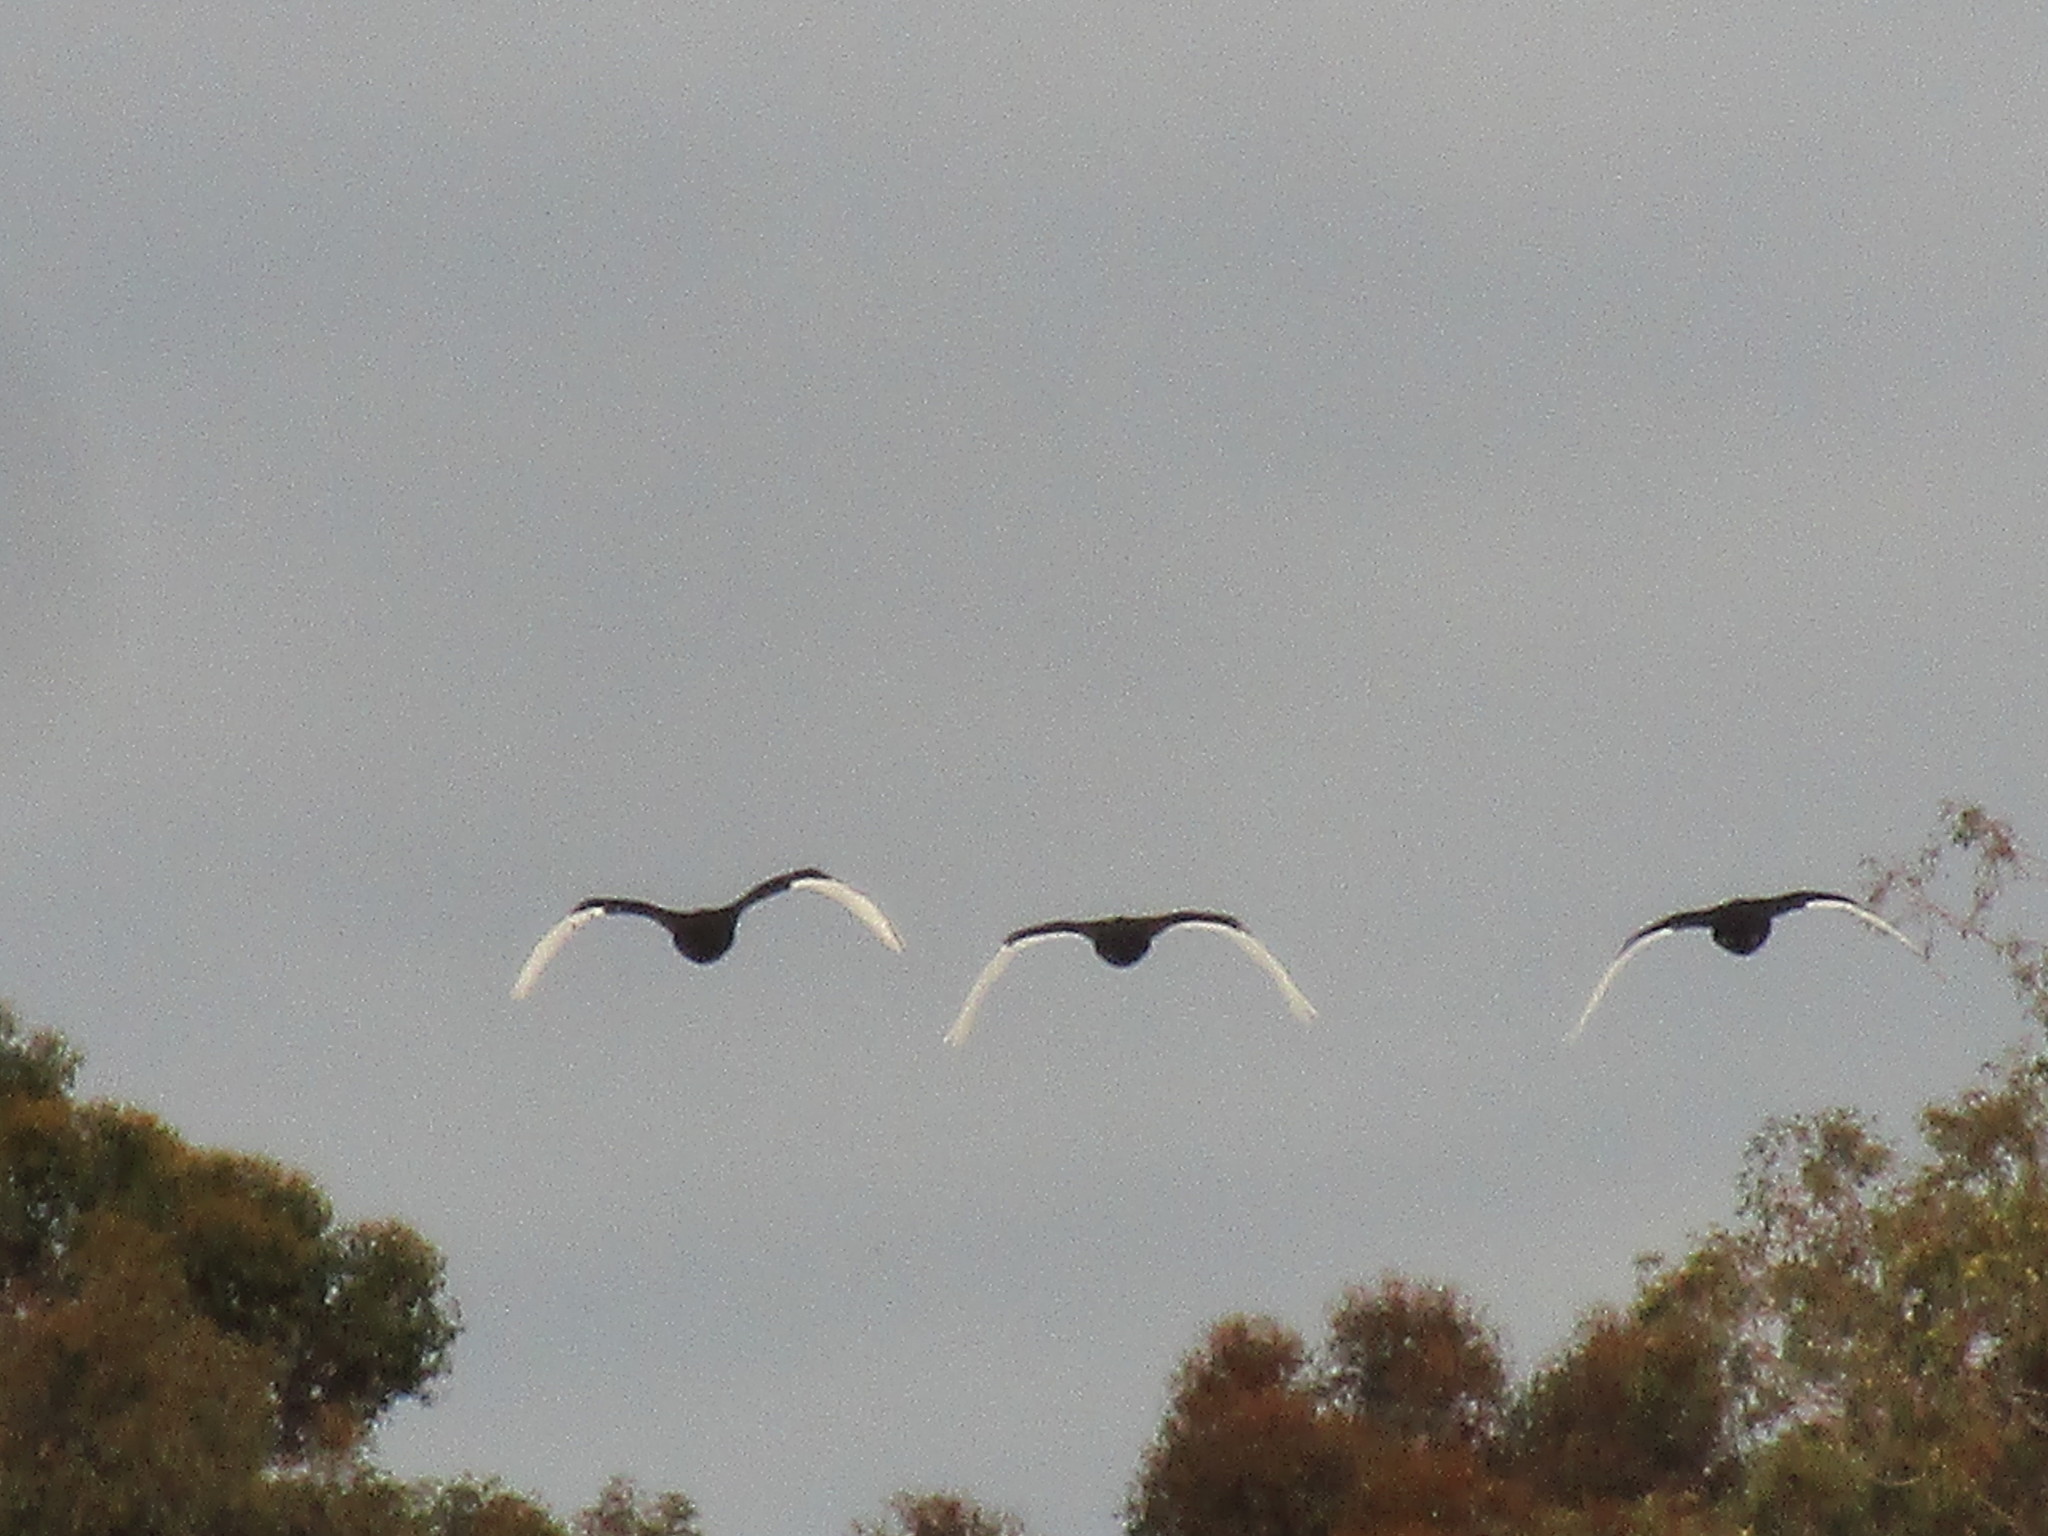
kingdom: Animalia
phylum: Chordata
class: Aves
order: Anseriformes
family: Anatidae
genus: Cygnus
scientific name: Cygnus atratus
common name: Black swan
